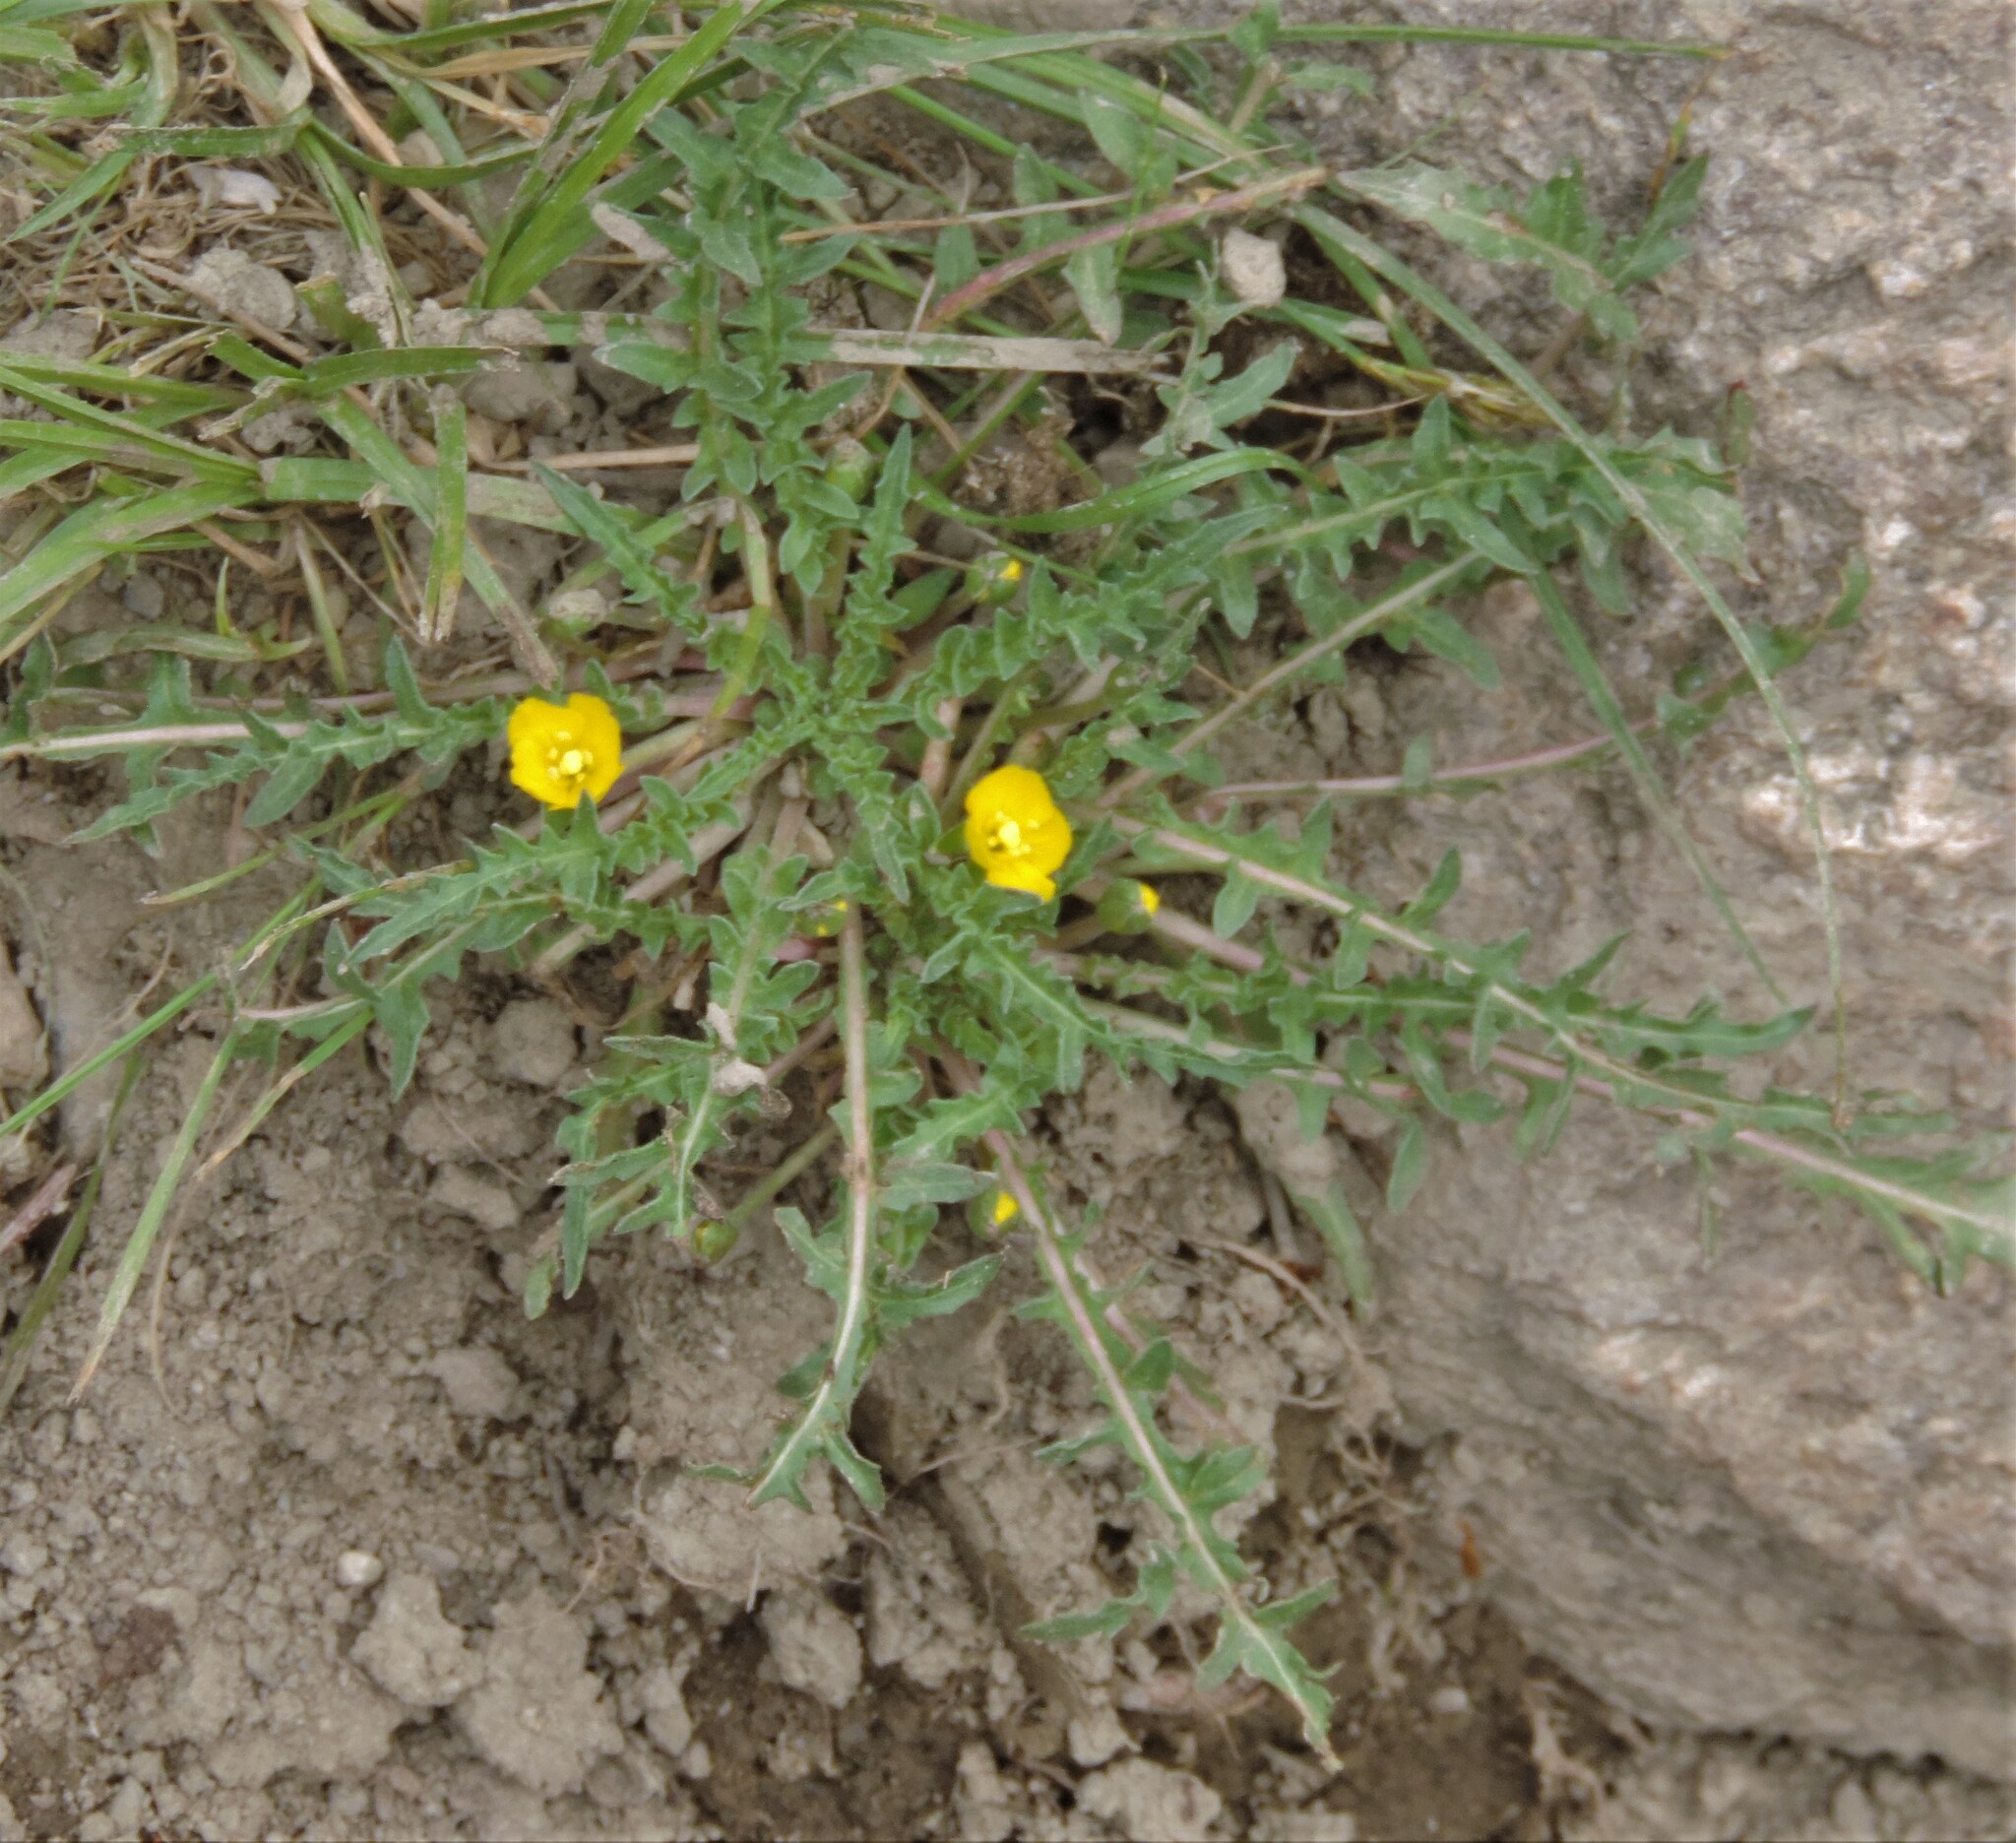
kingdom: Plantae
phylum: Tracheophyta
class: Magnoliopsida
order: Myrtales
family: Onagraceae
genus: Taraxia
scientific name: Taraxia breviflora
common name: Few-flowered evening primrose
